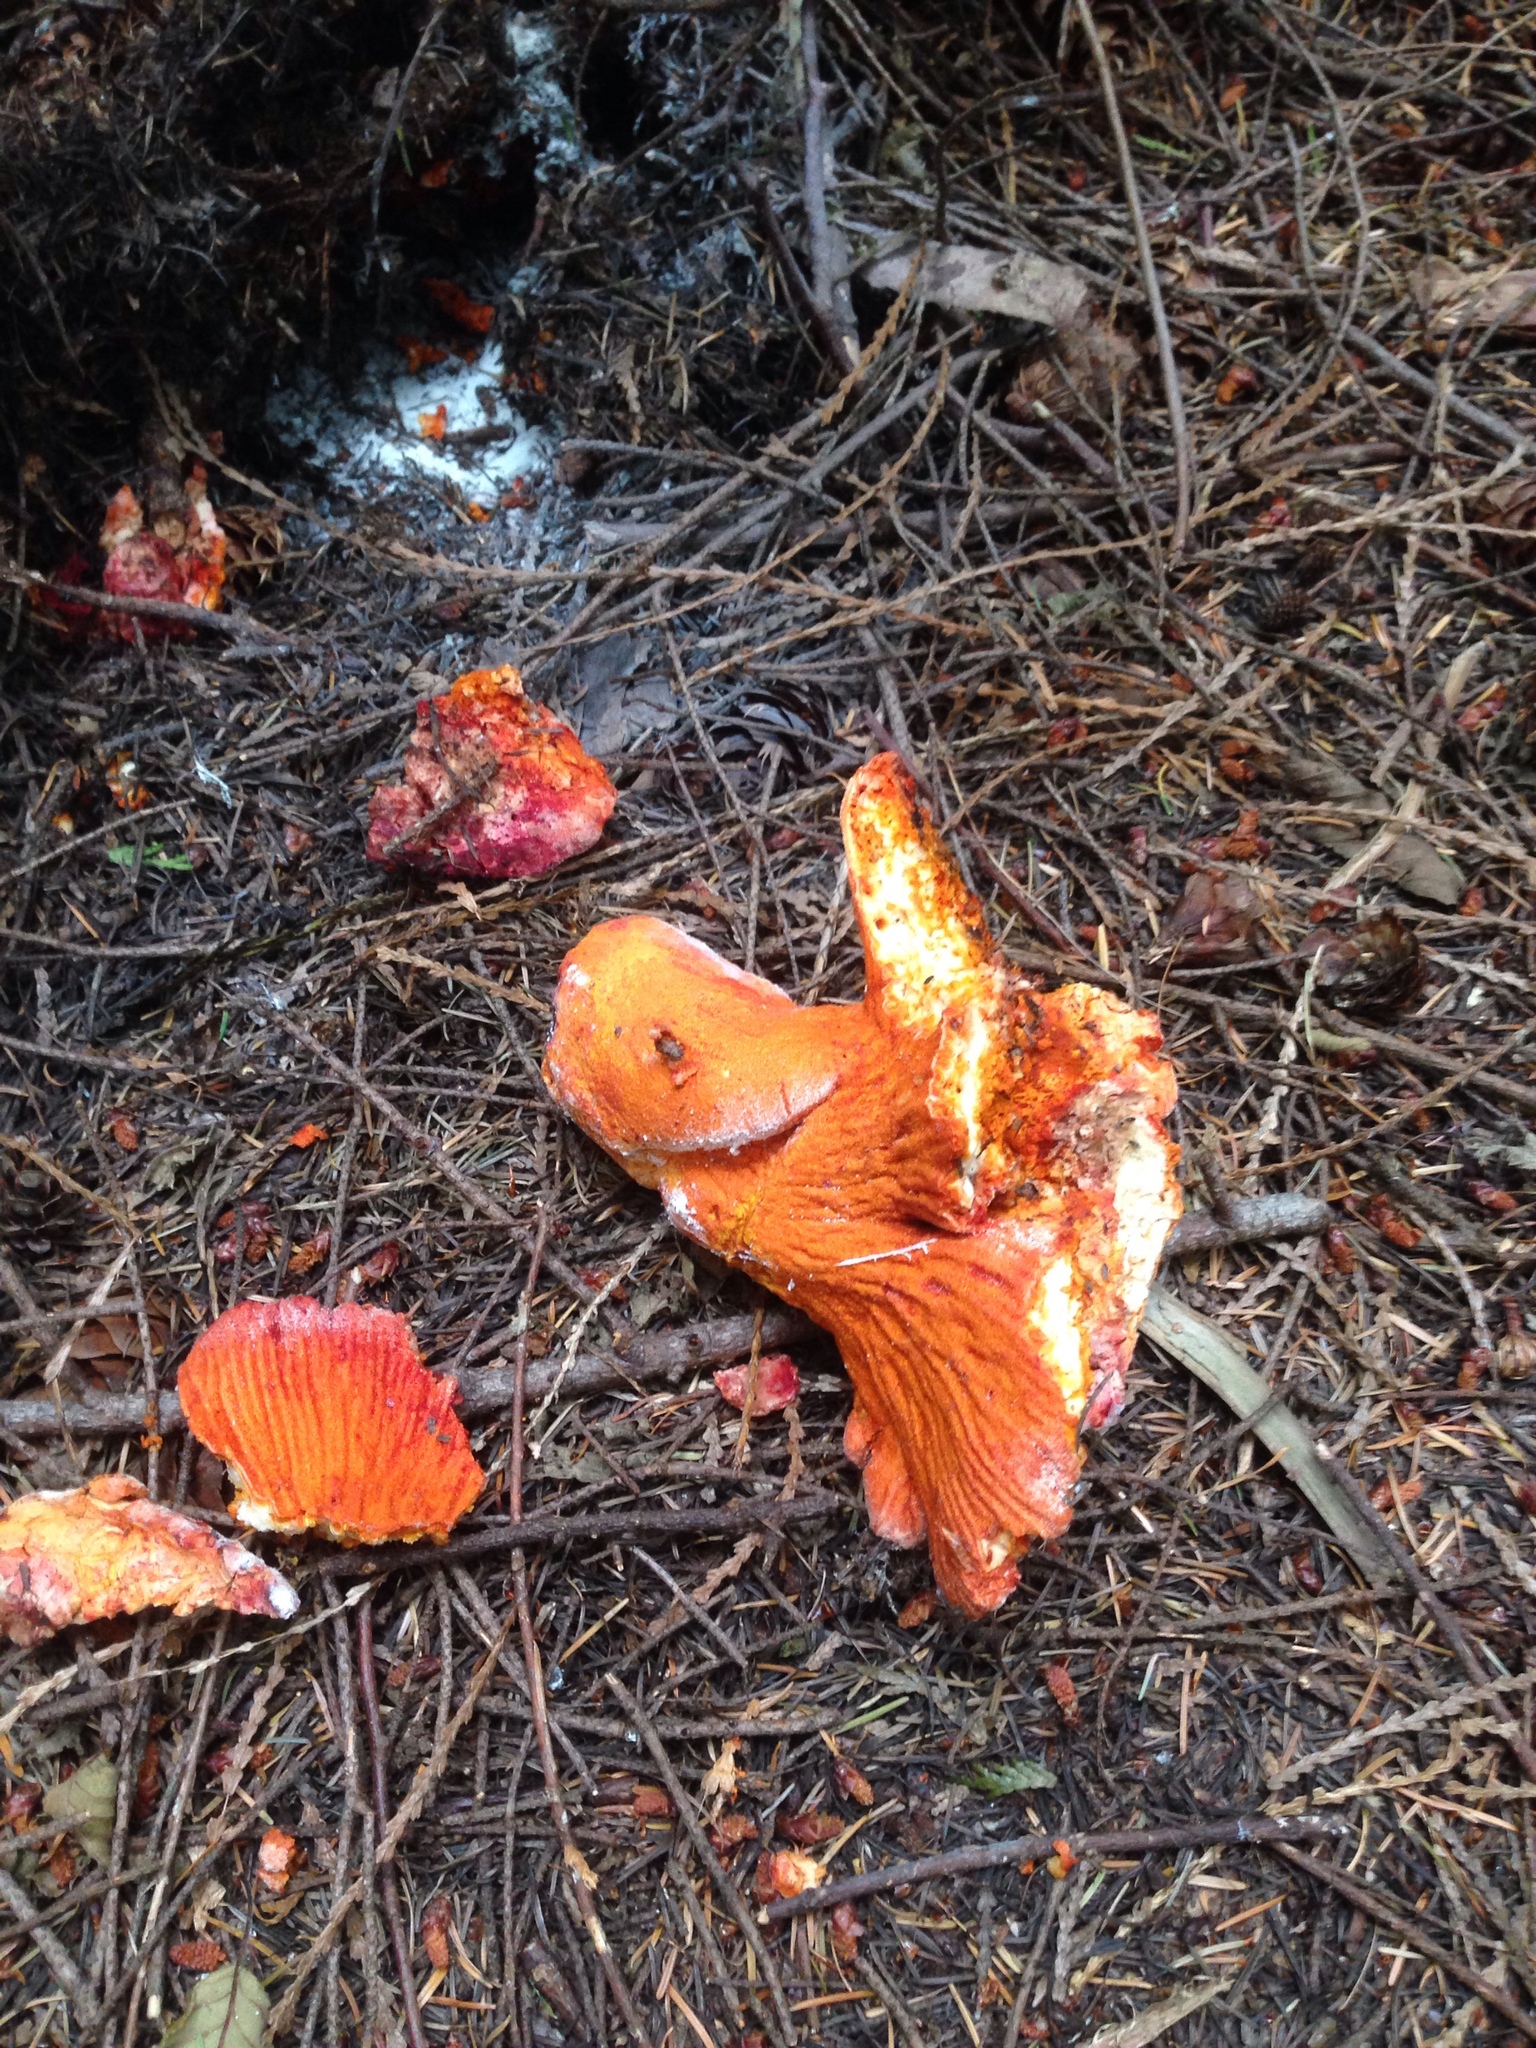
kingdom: Fungi
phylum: Ascomycota
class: Sordariomycetes
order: Hypocreales
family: Hypocreaceae
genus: Hypomyces
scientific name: Hypomyces lactifluorum
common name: Lobster mushroom
